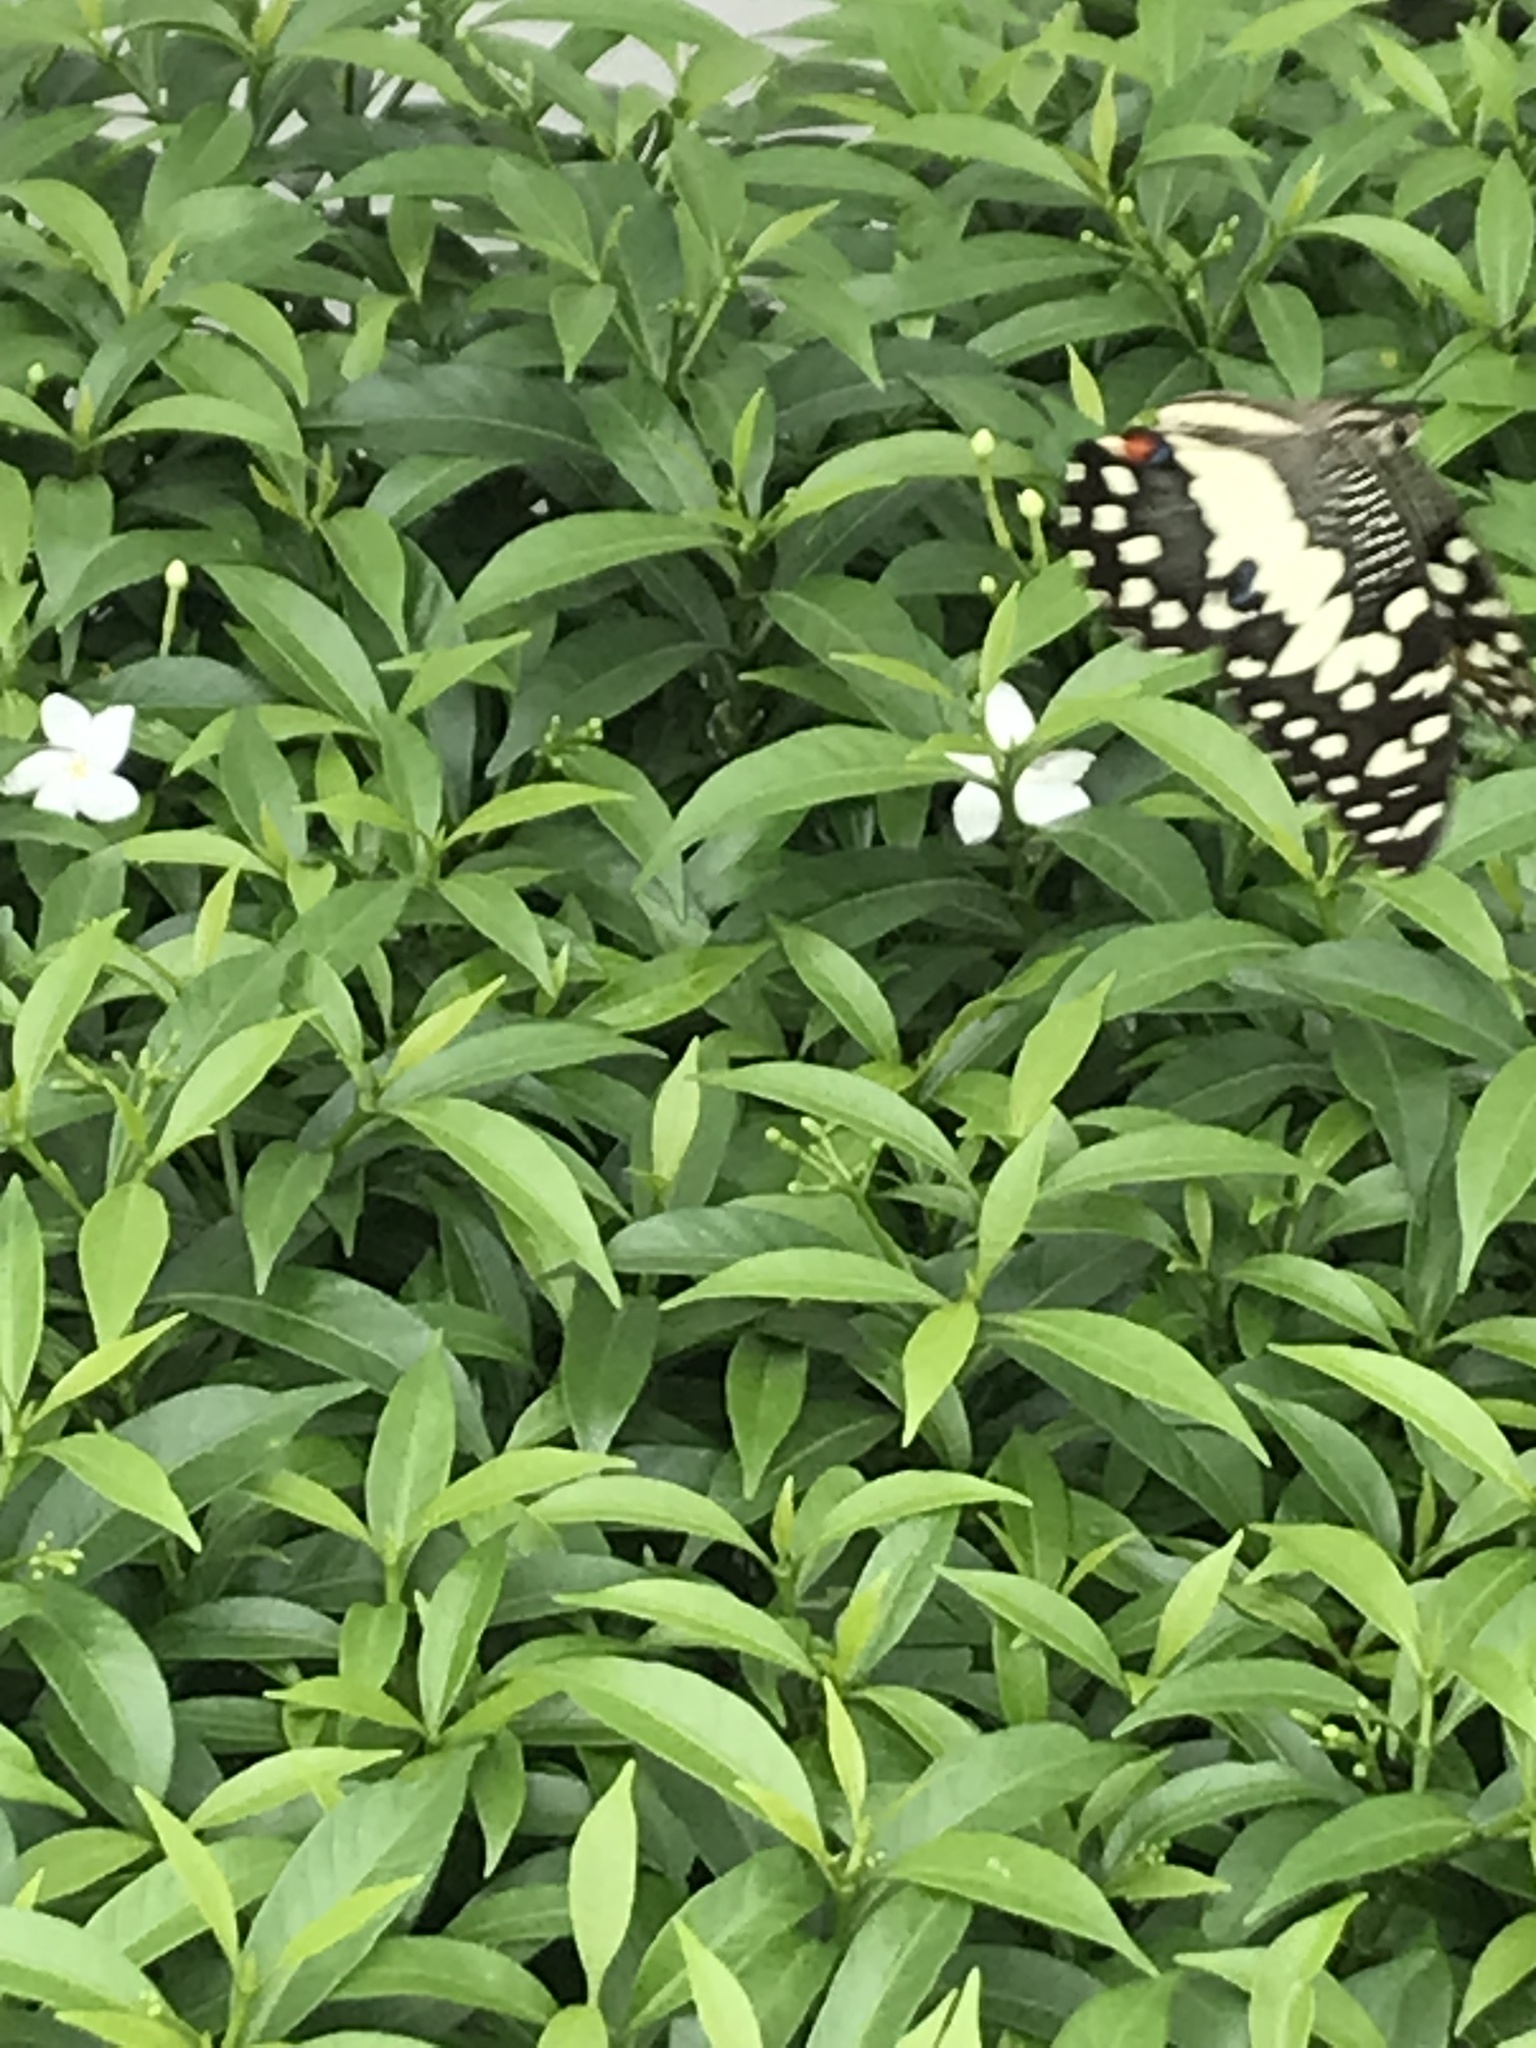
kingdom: Animalia
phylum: Arthropoda
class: Insecta
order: Lepidoptera
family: Papilionidae
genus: Papilio
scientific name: Papilio demoleus
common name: Lime butterfly
